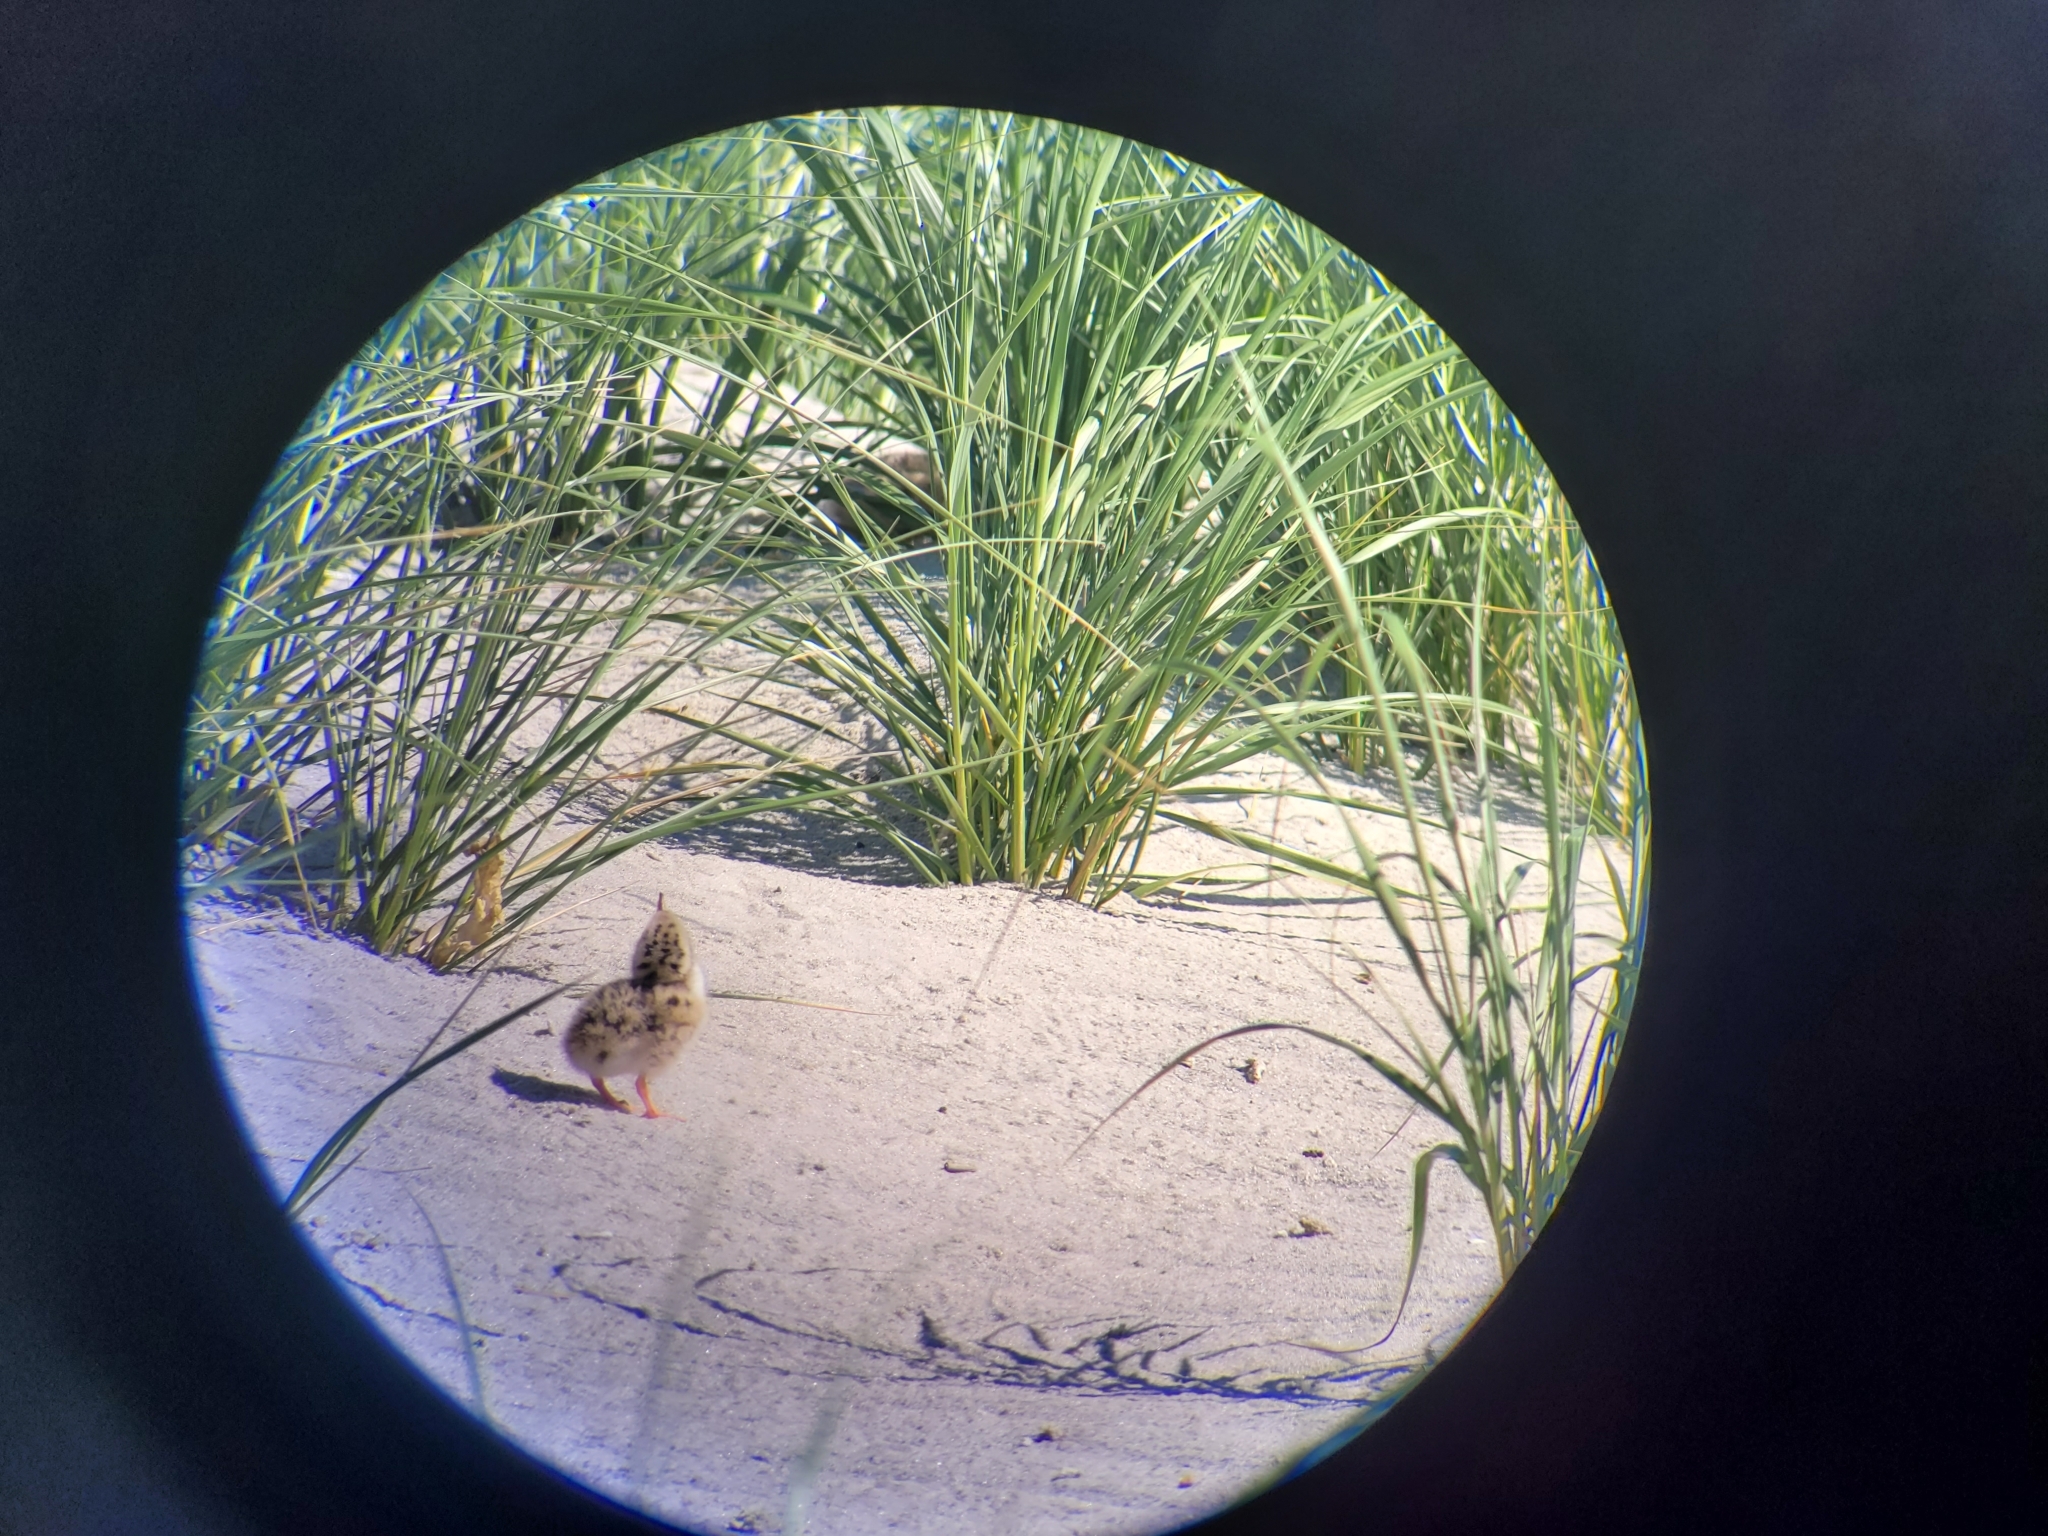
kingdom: Animalia
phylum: Chordata
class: Aves
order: Charadriiformes
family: Laridae
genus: Sterna
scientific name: Sterna hirundo
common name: Common tern
